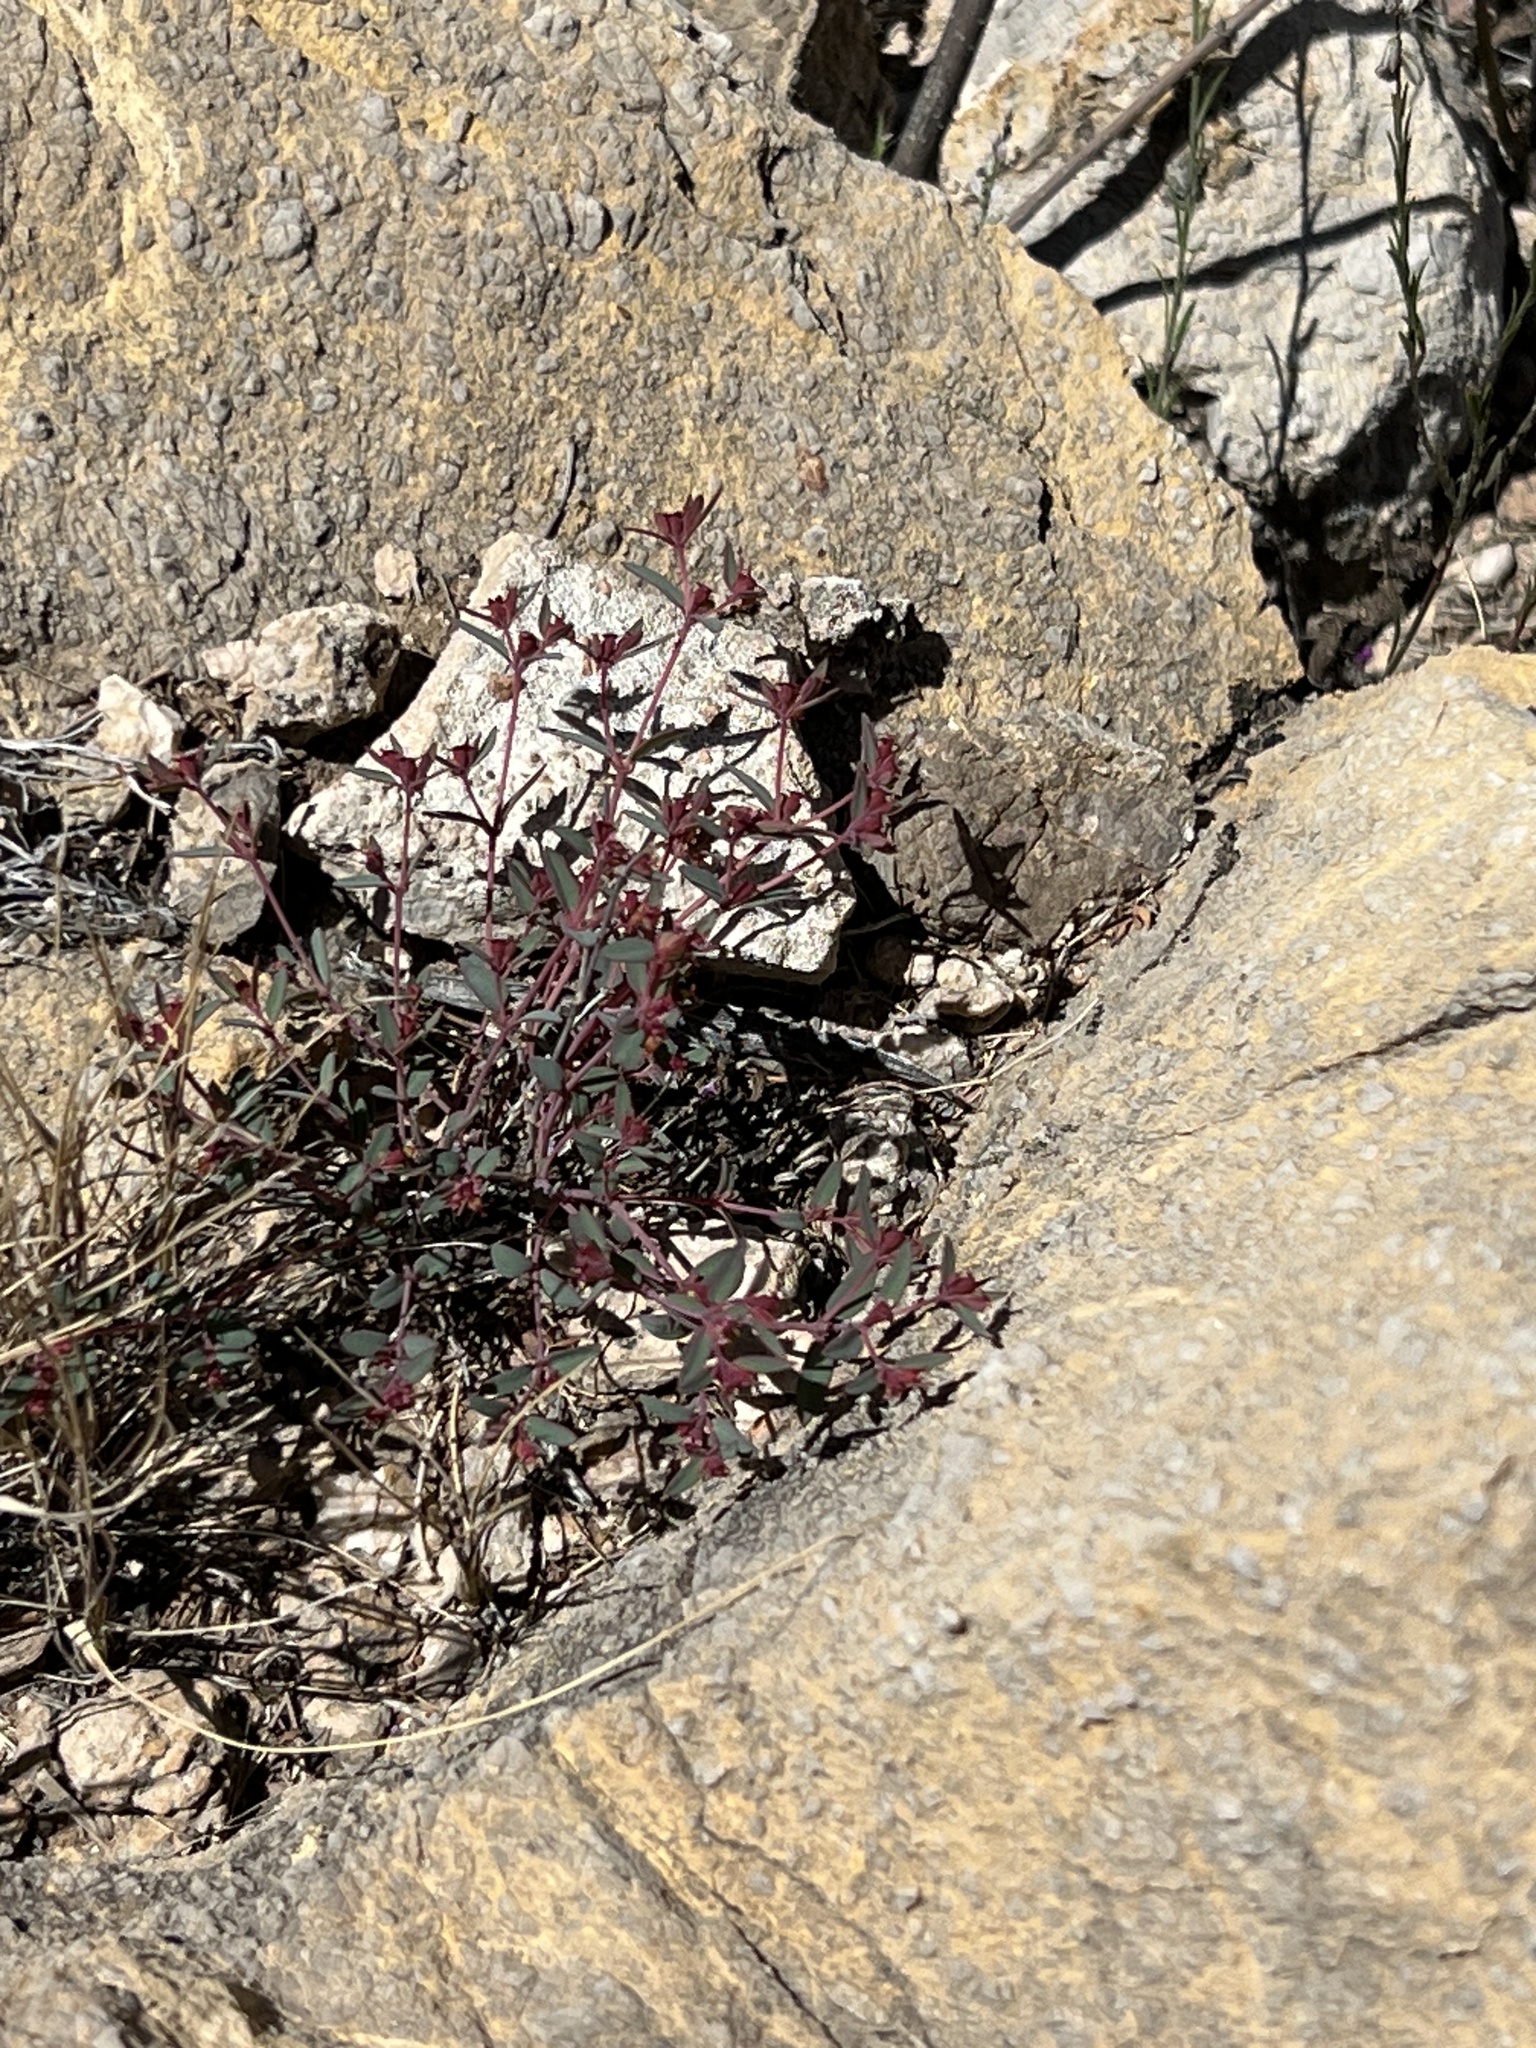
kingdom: Plantae
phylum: Tracheophyta
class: Magnoliopsida
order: Malpighiales
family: Euphorbiaceae
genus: Euphorbia
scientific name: Euphorbia chaetocalyx
